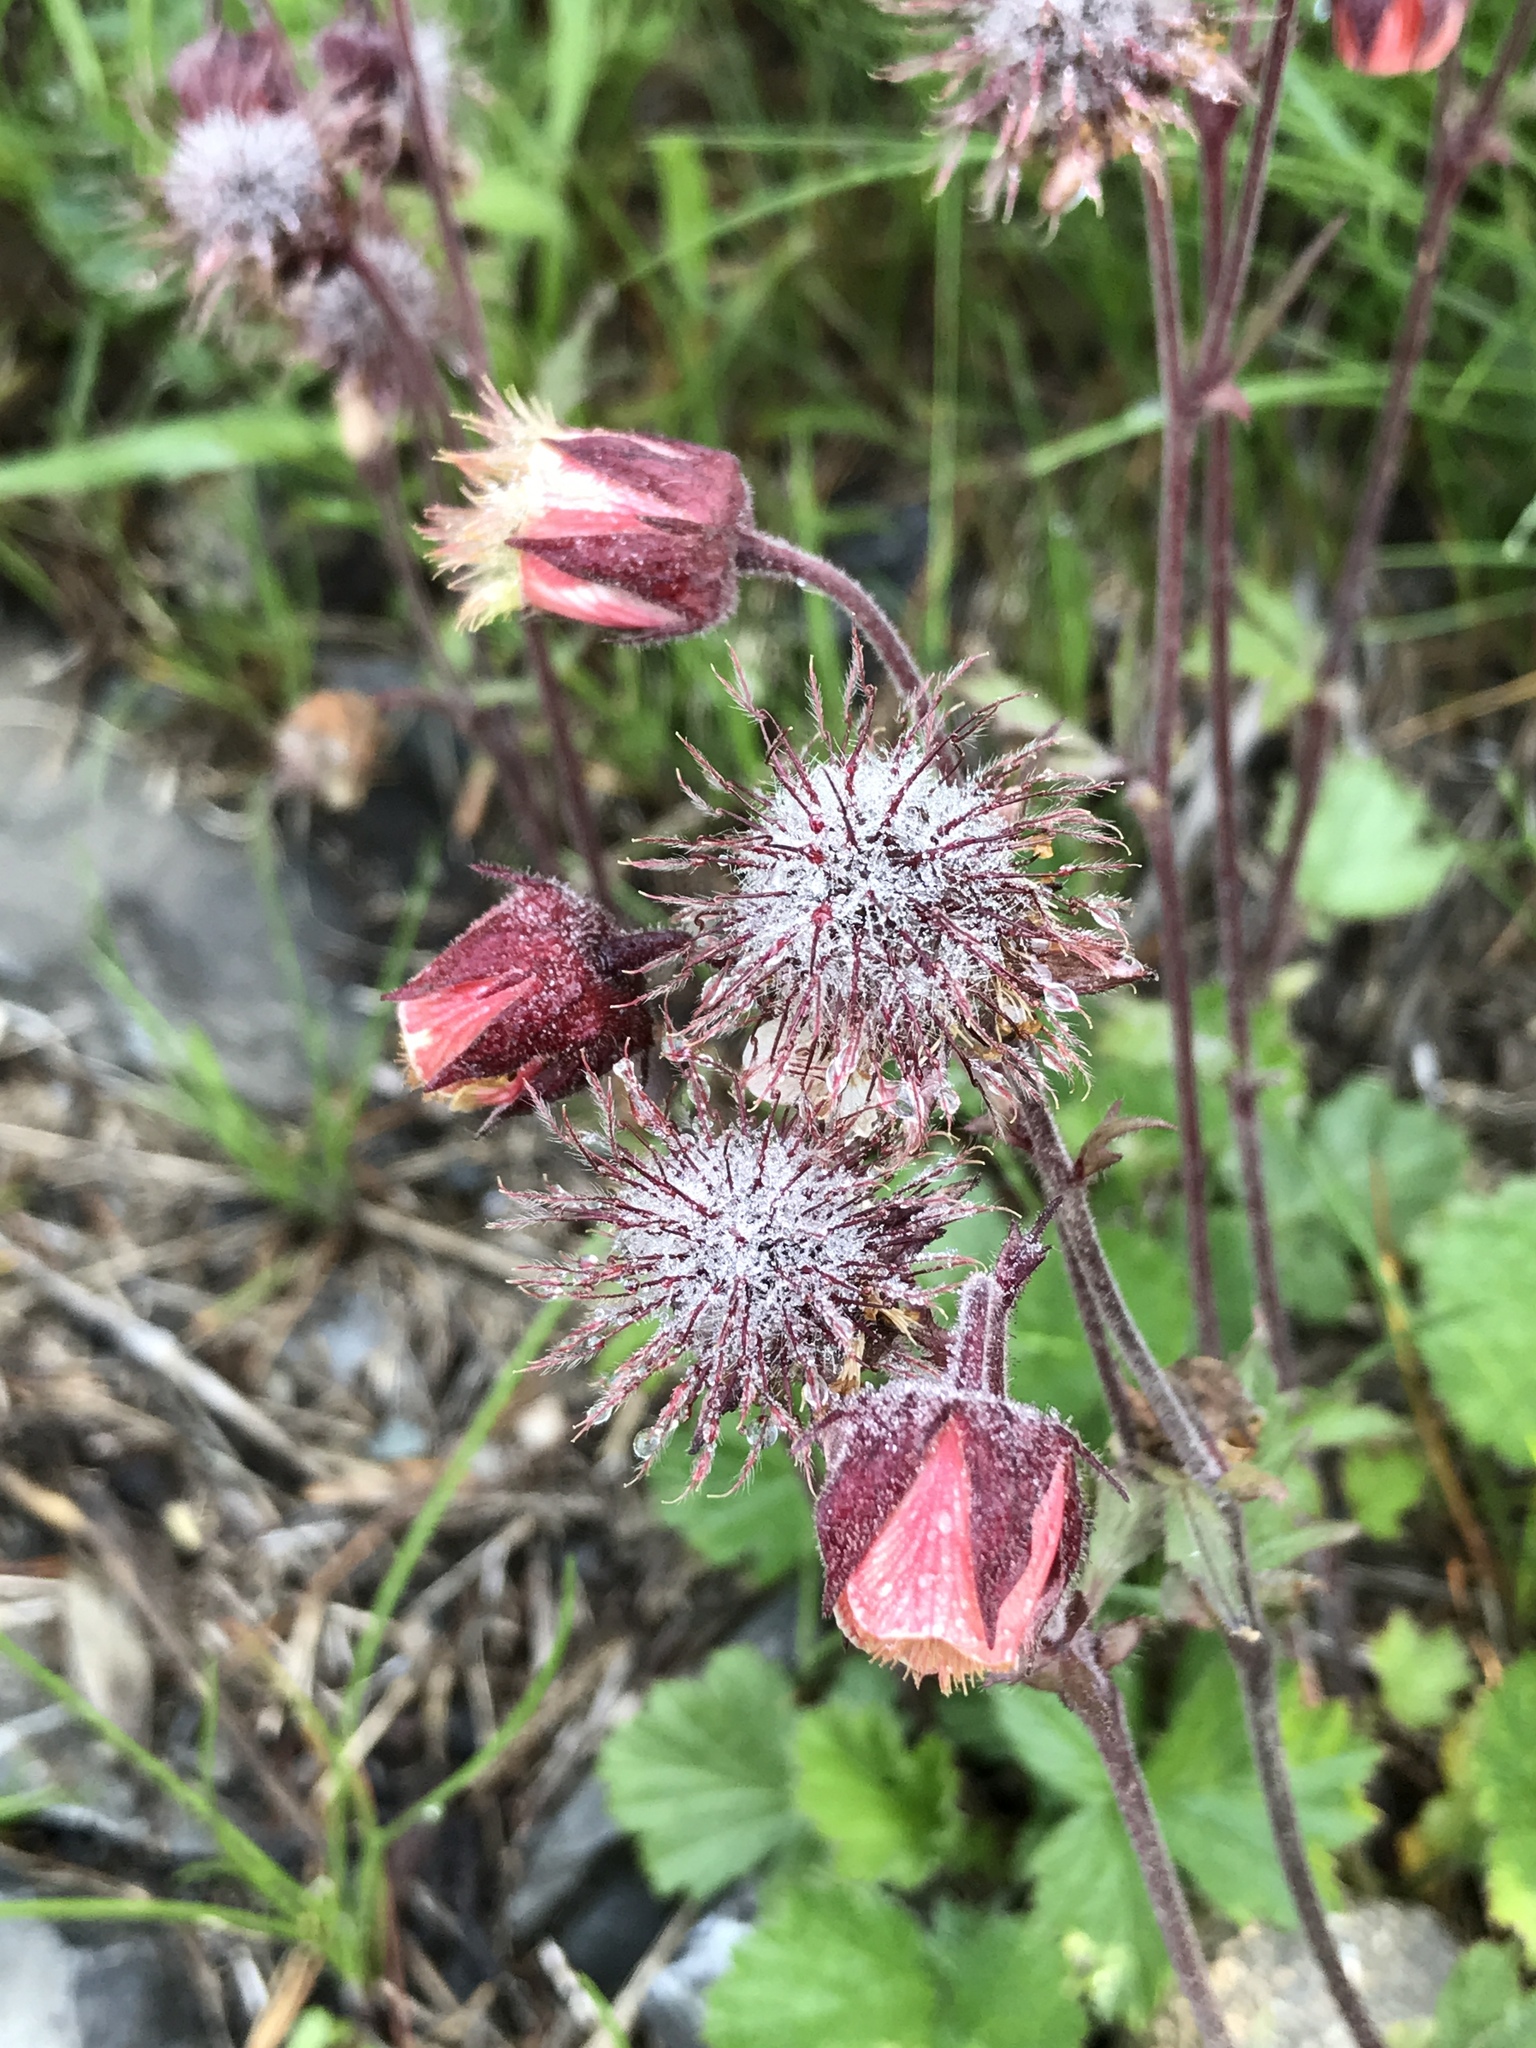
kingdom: Plantae
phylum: Tracheophyta
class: Magnoliopsida
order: Rosales
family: Rosaceae
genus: Geum
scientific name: Geum rivale
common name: Water avens
